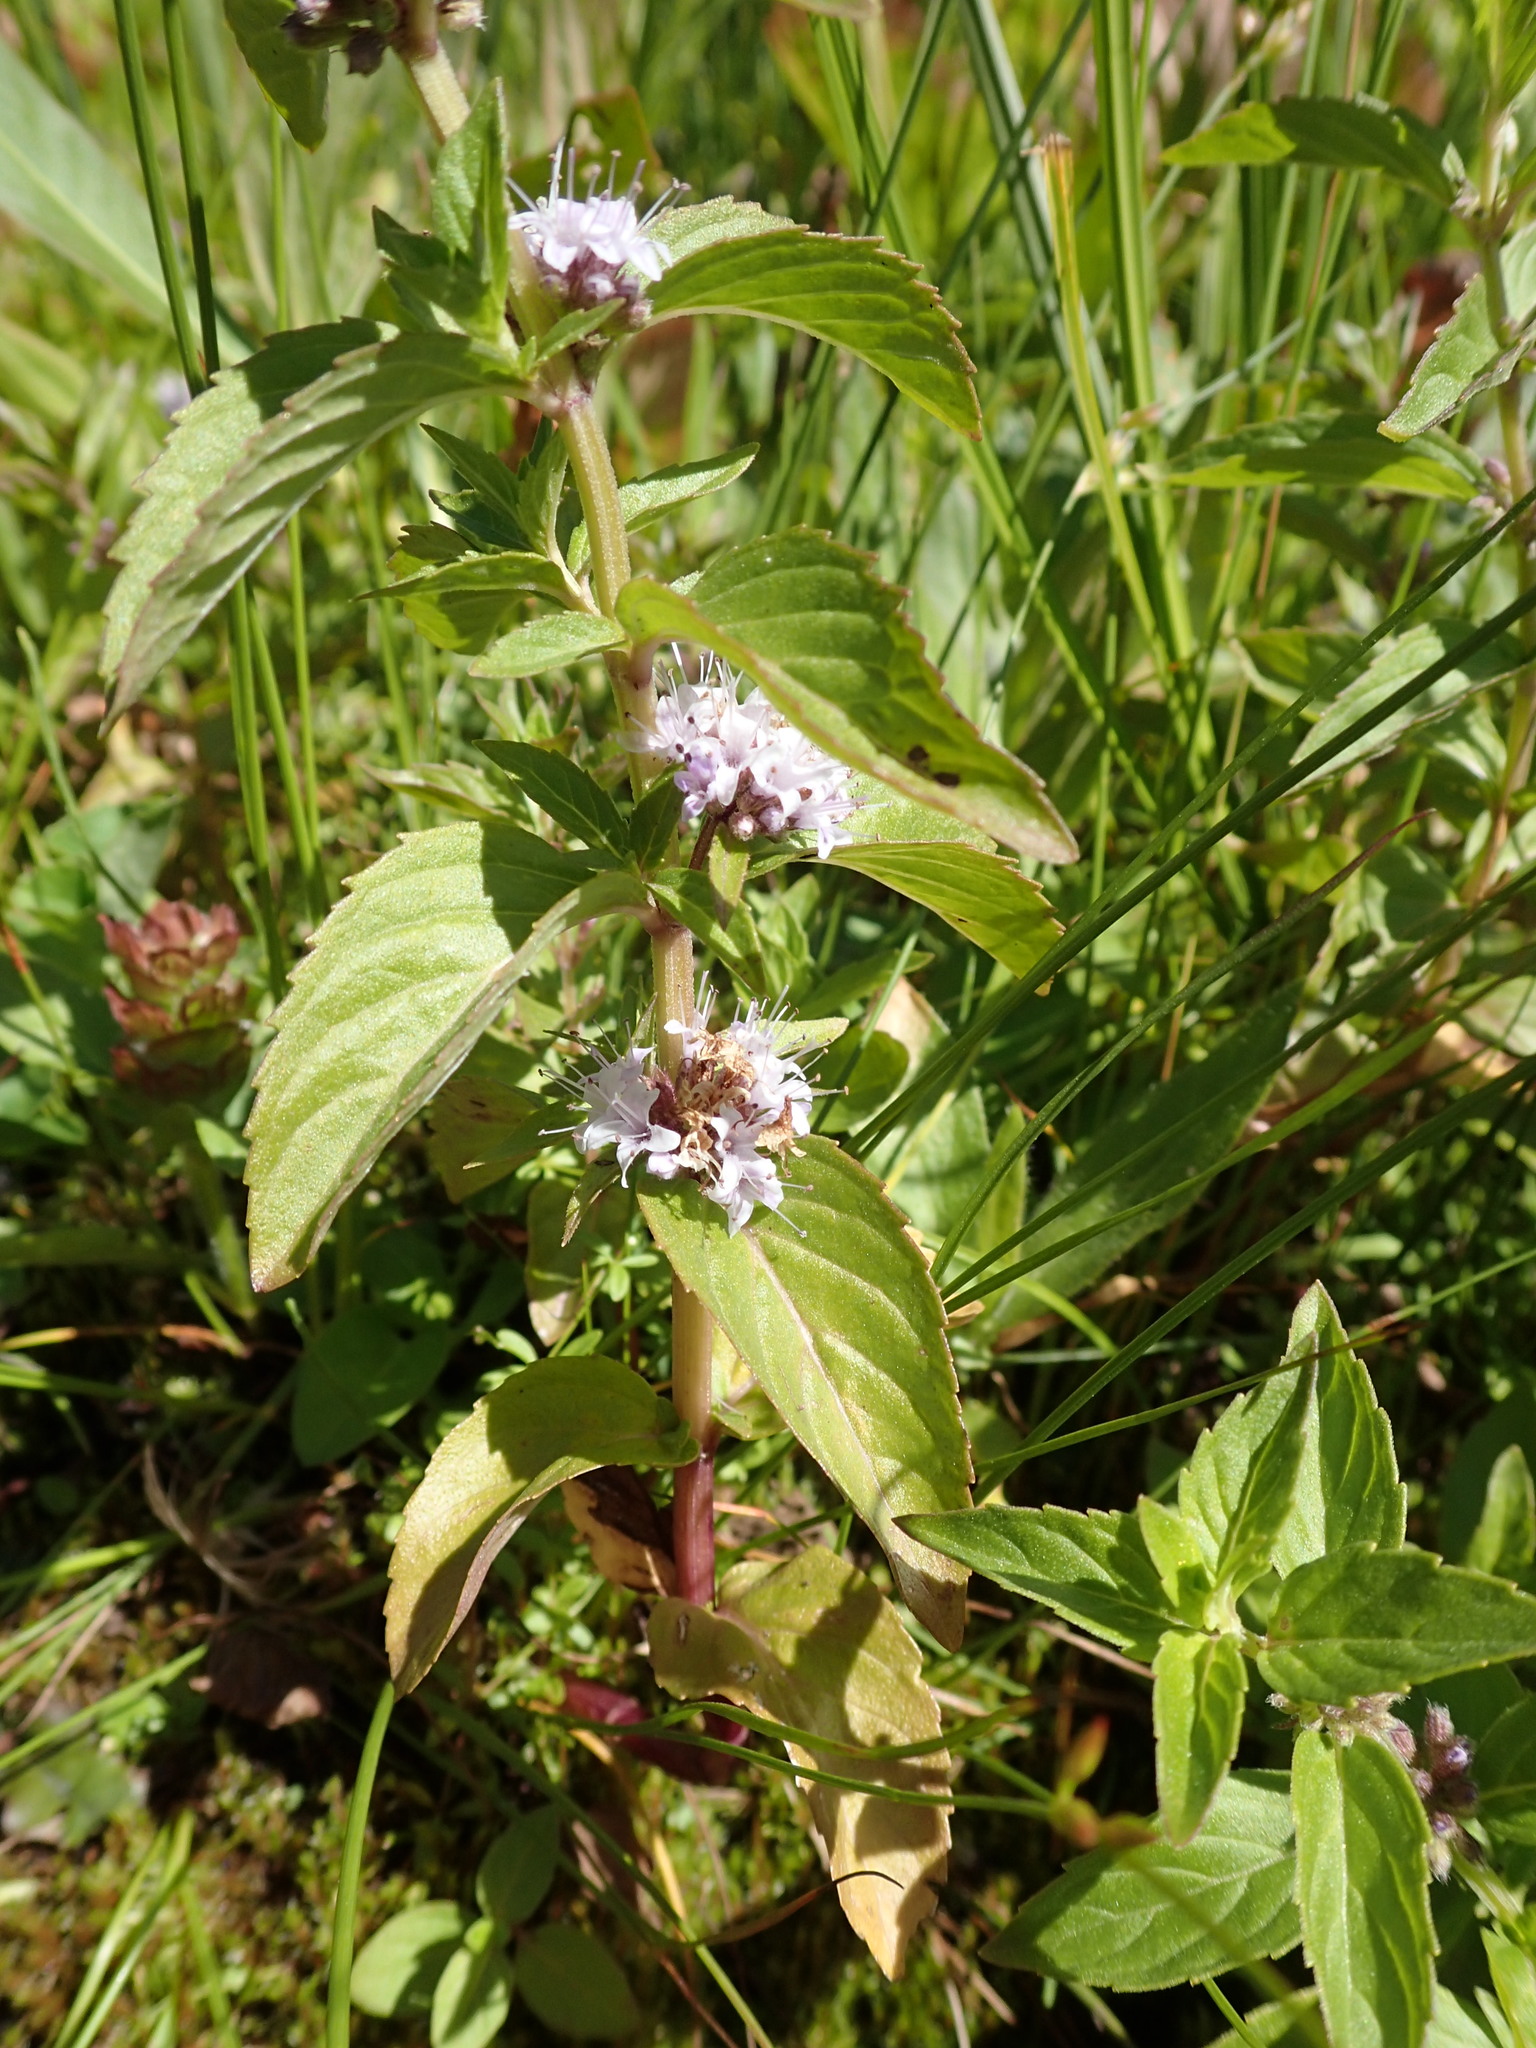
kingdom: Plantae
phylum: Tracheophyta
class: Magnoliopsida
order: Lamiales
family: Lamiaceae
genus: Mentha
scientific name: Mentha canadensis
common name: American corn mint
